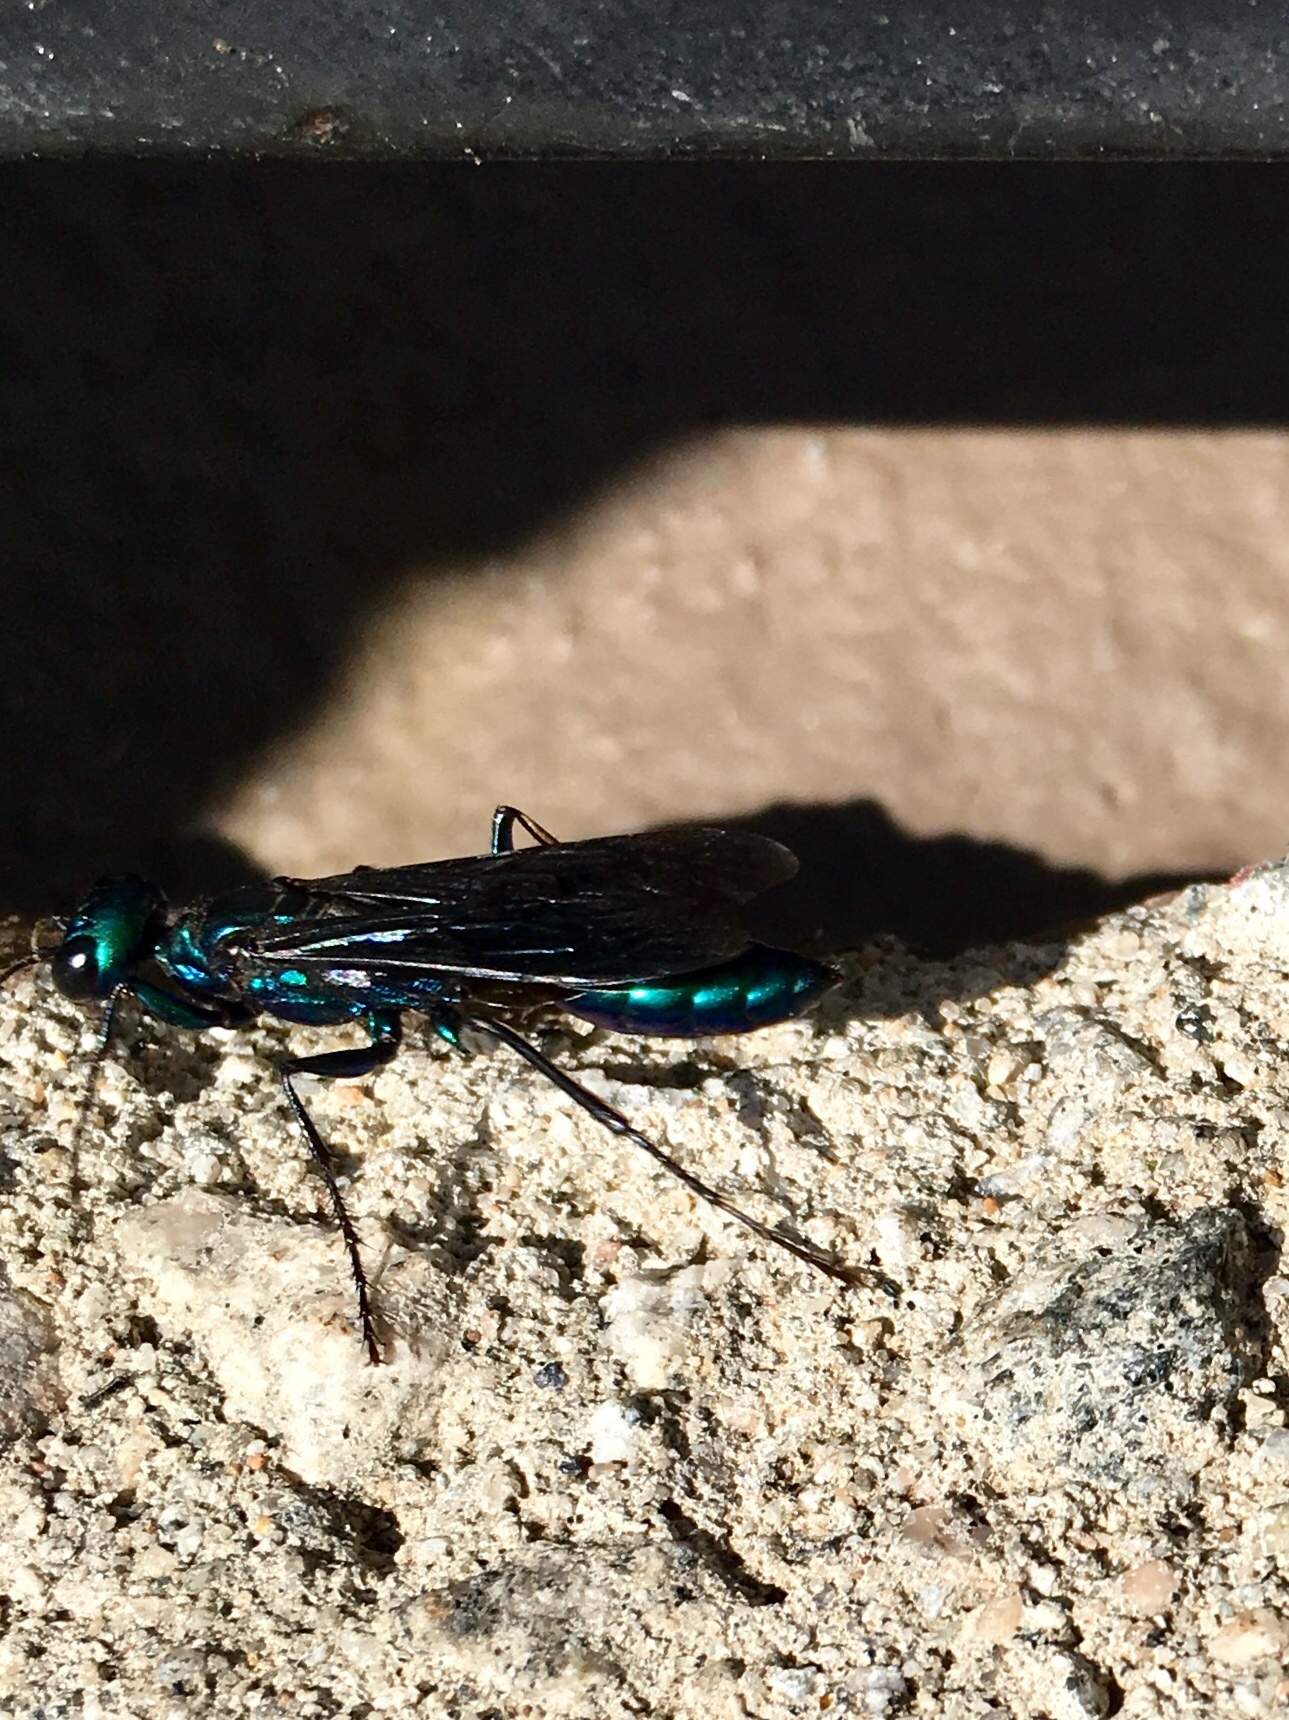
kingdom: Animalia
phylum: Arthropoda
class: Insecta
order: Hymenoptera
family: Sphecidae
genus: Chlorion
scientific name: Chlorion aerarium
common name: Steel-blue cricket hunter
